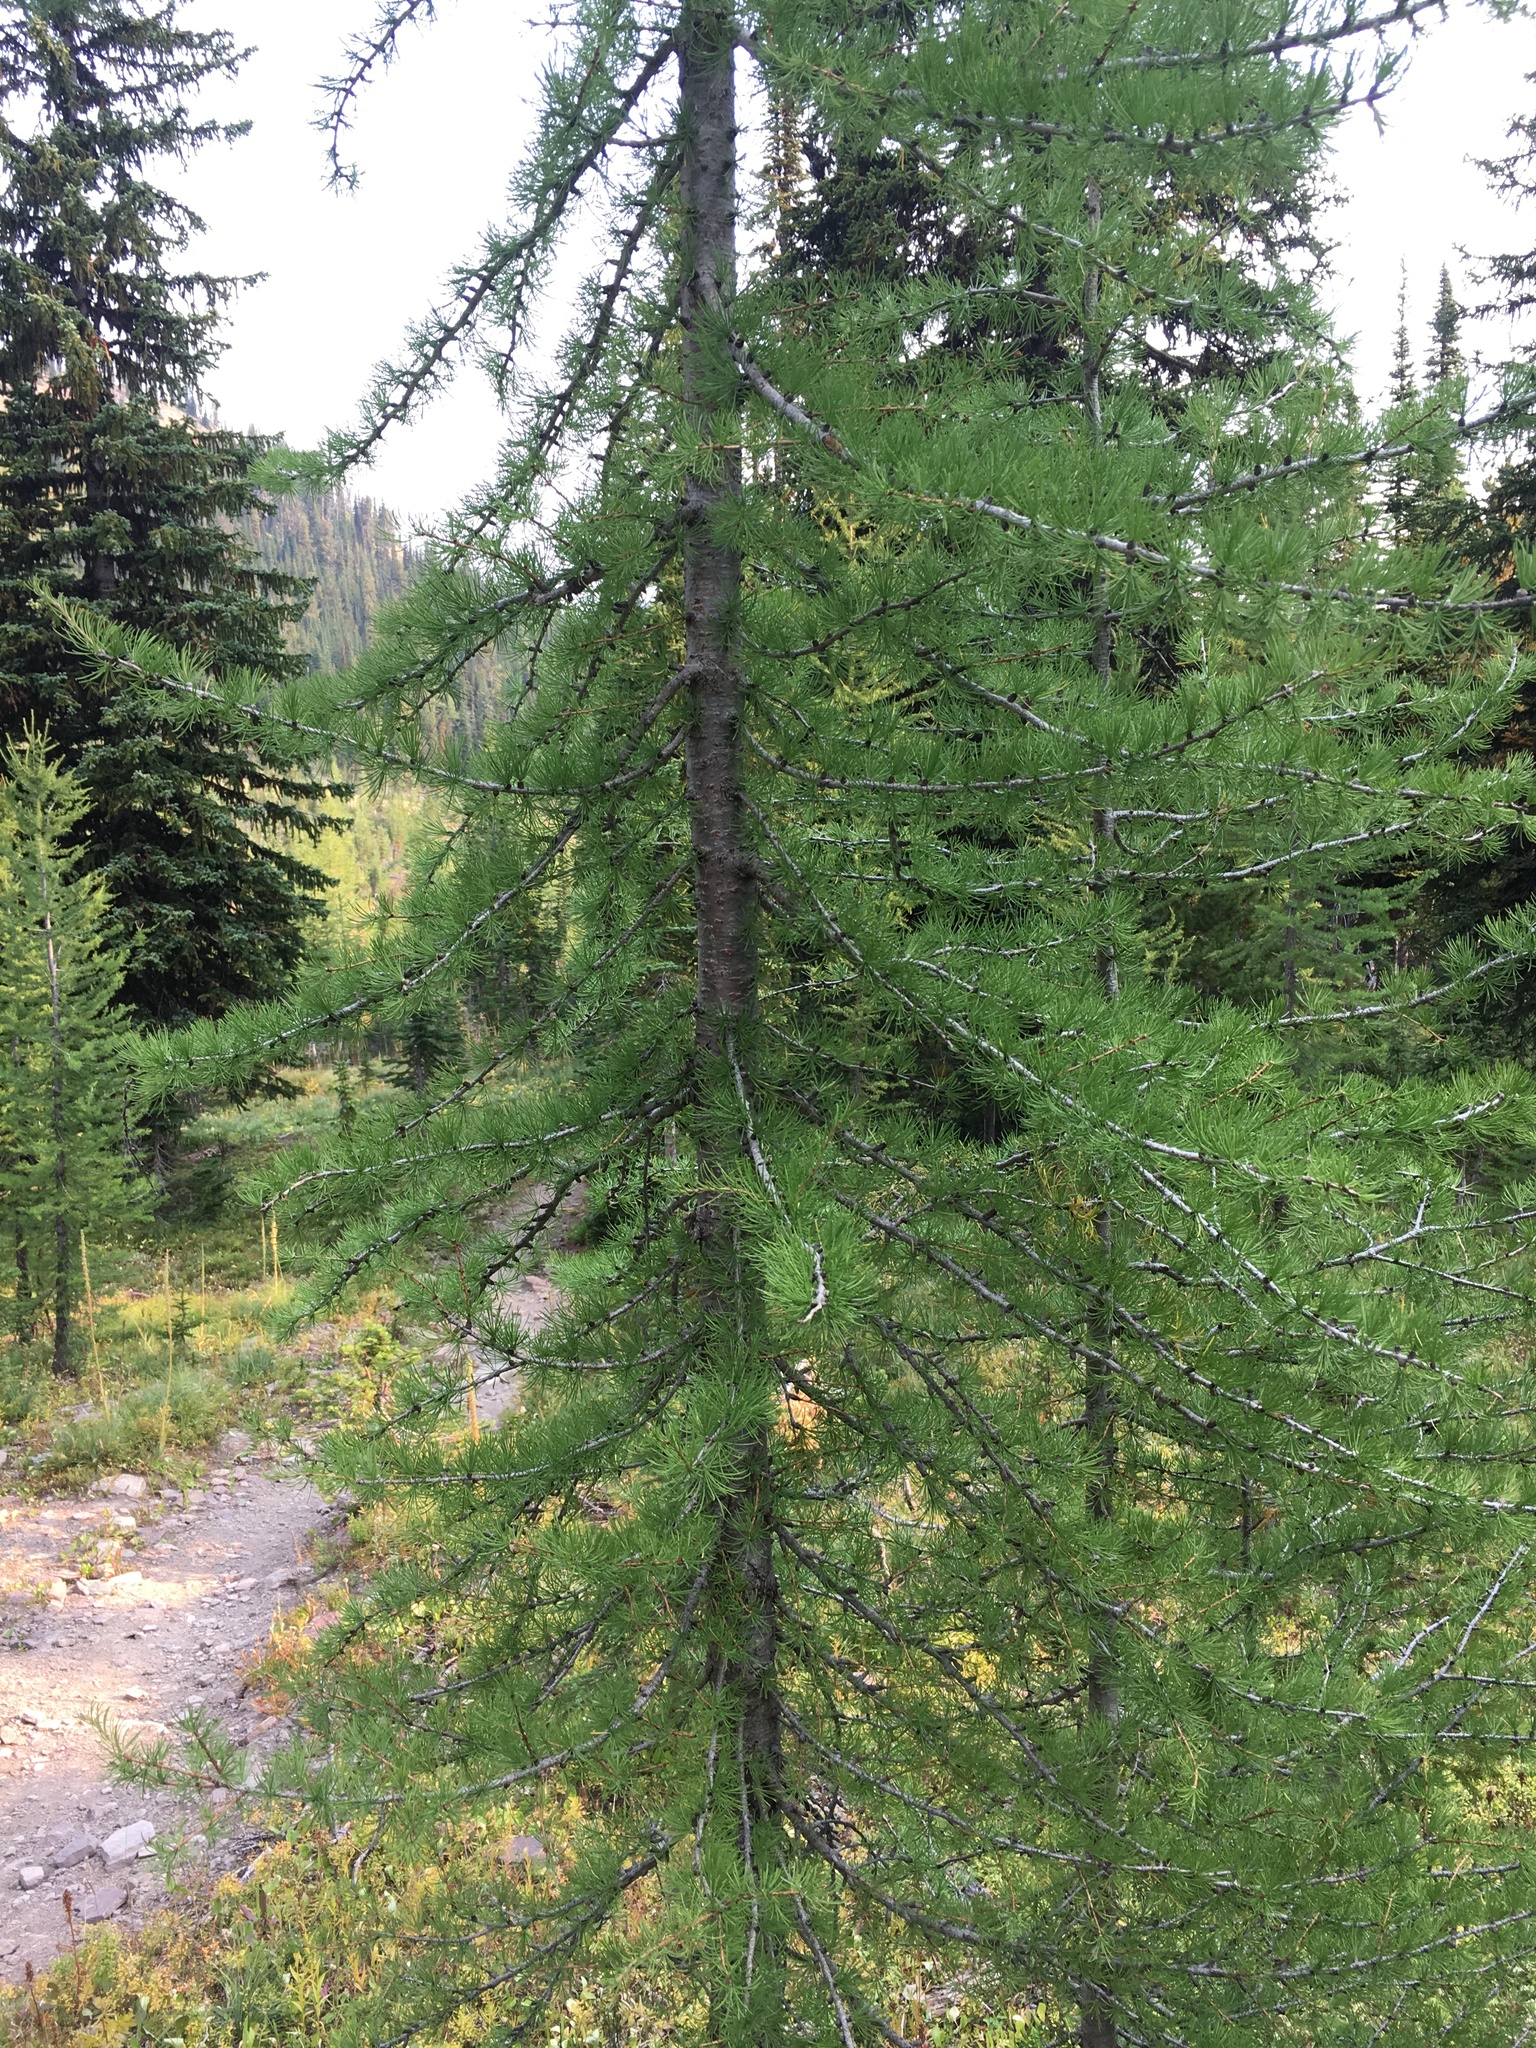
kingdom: Plantae
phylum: Tracheophyta
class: Pinopsida
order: Pinales
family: Pinaceae
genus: Larix
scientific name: Larix lyallii
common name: Alpine larch
